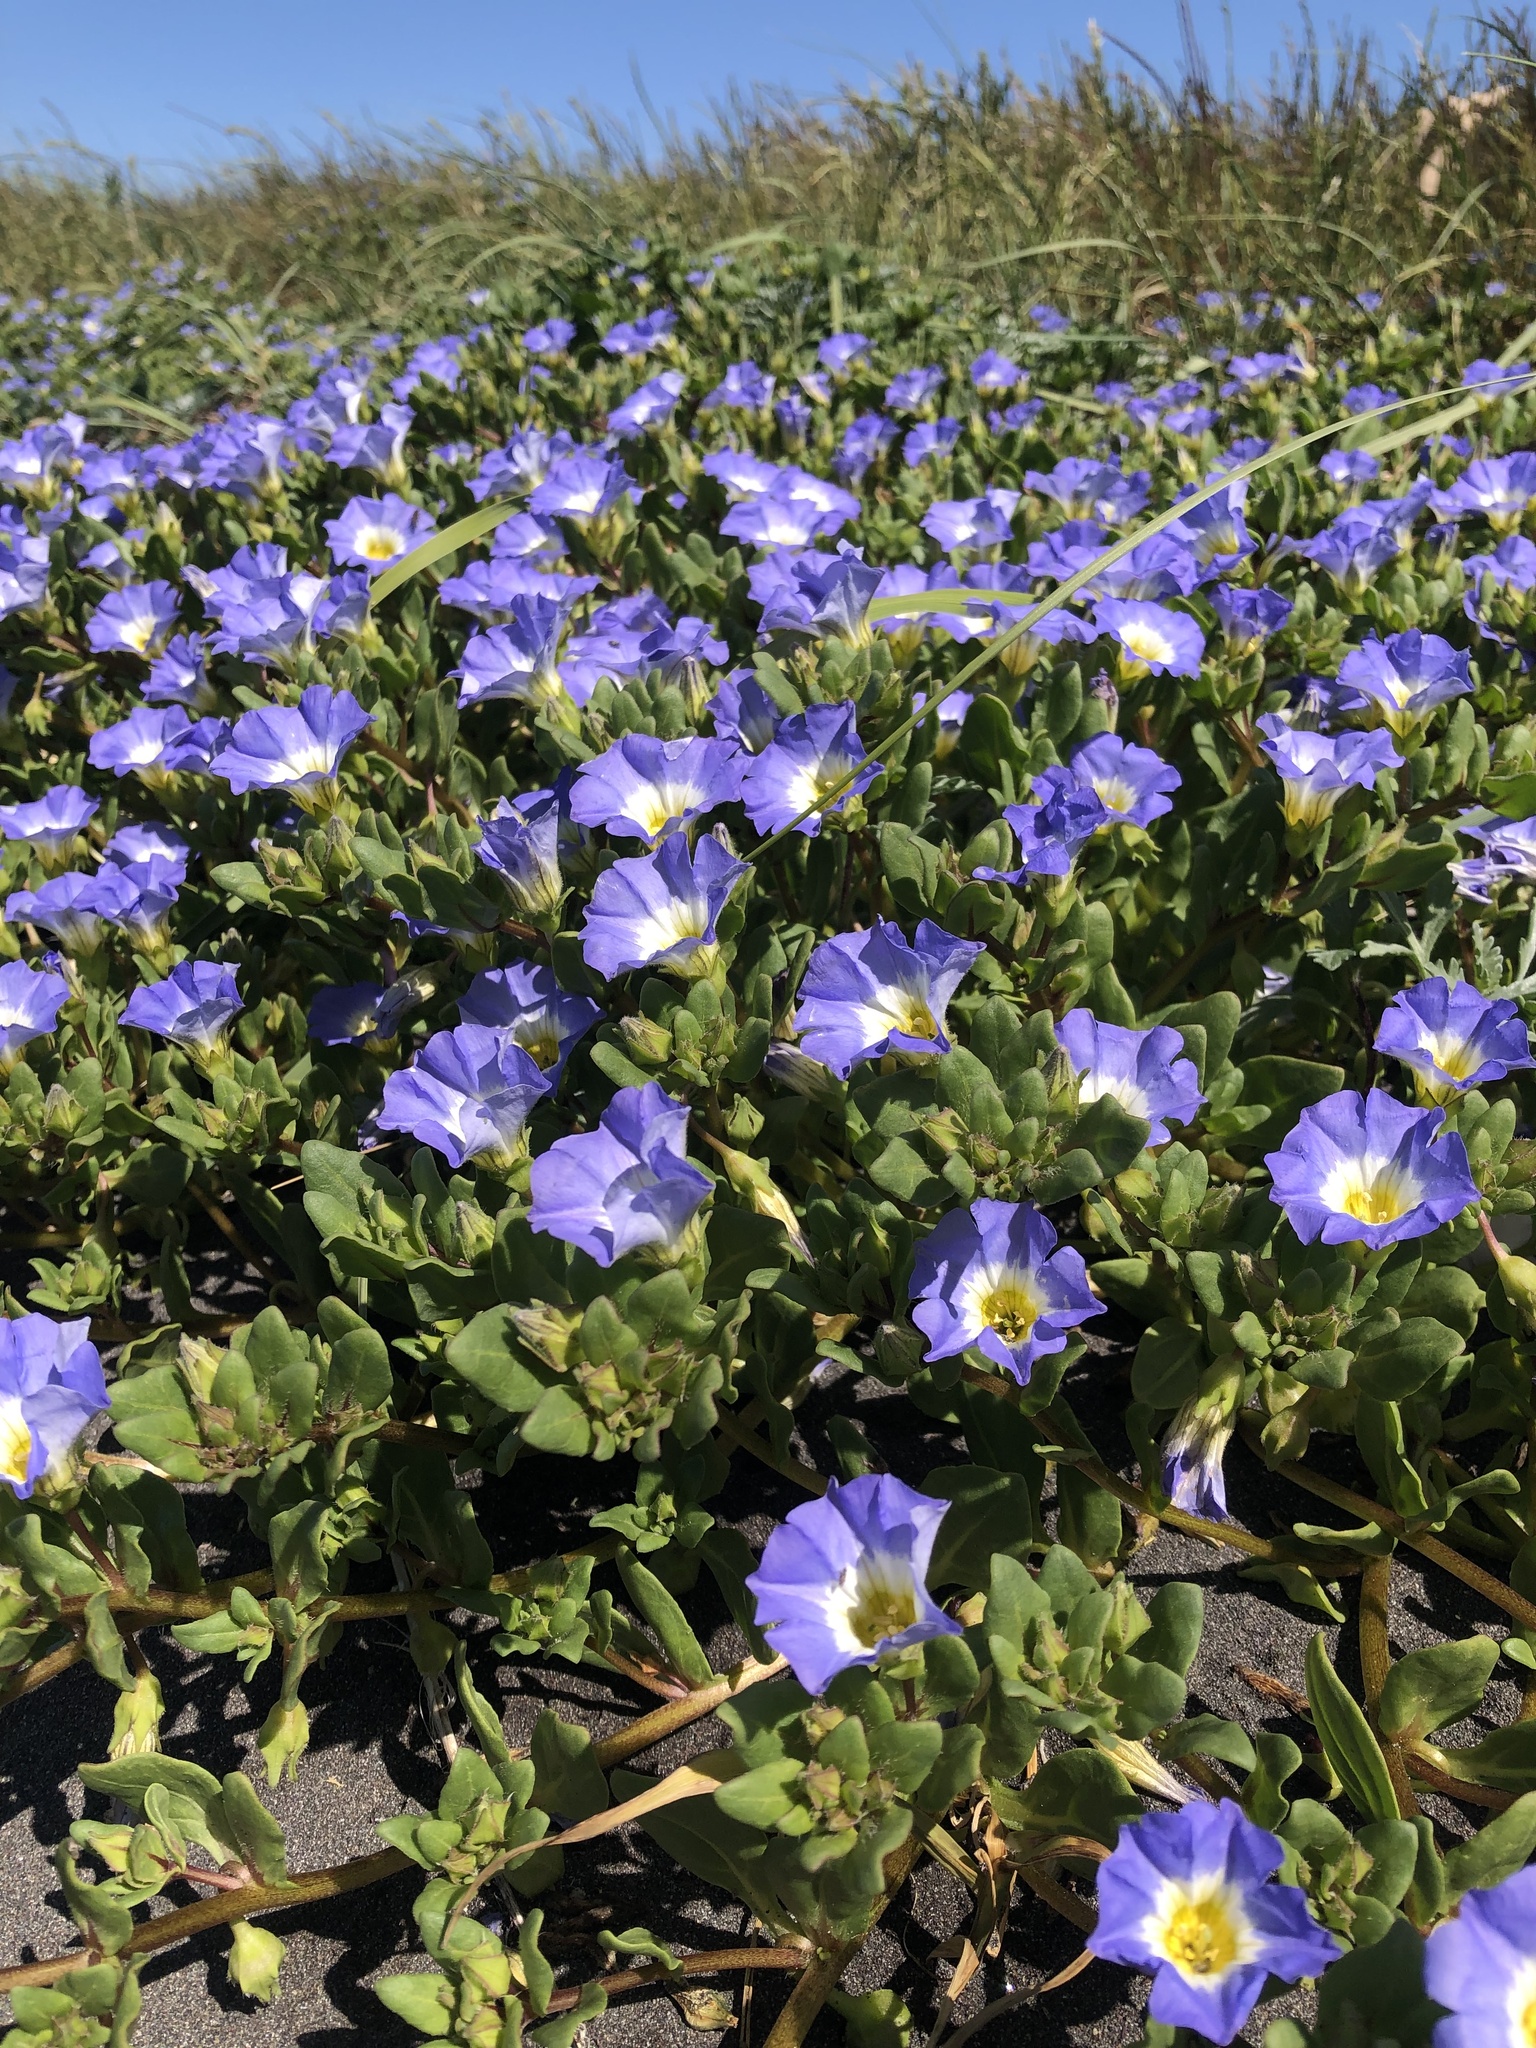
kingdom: Plantae
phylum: Tracheophyta
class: Magnoliopsida
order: Solanales
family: Solanaceae
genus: Nolana
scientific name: Nolana paradoxa
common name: Chilean-bellflower
